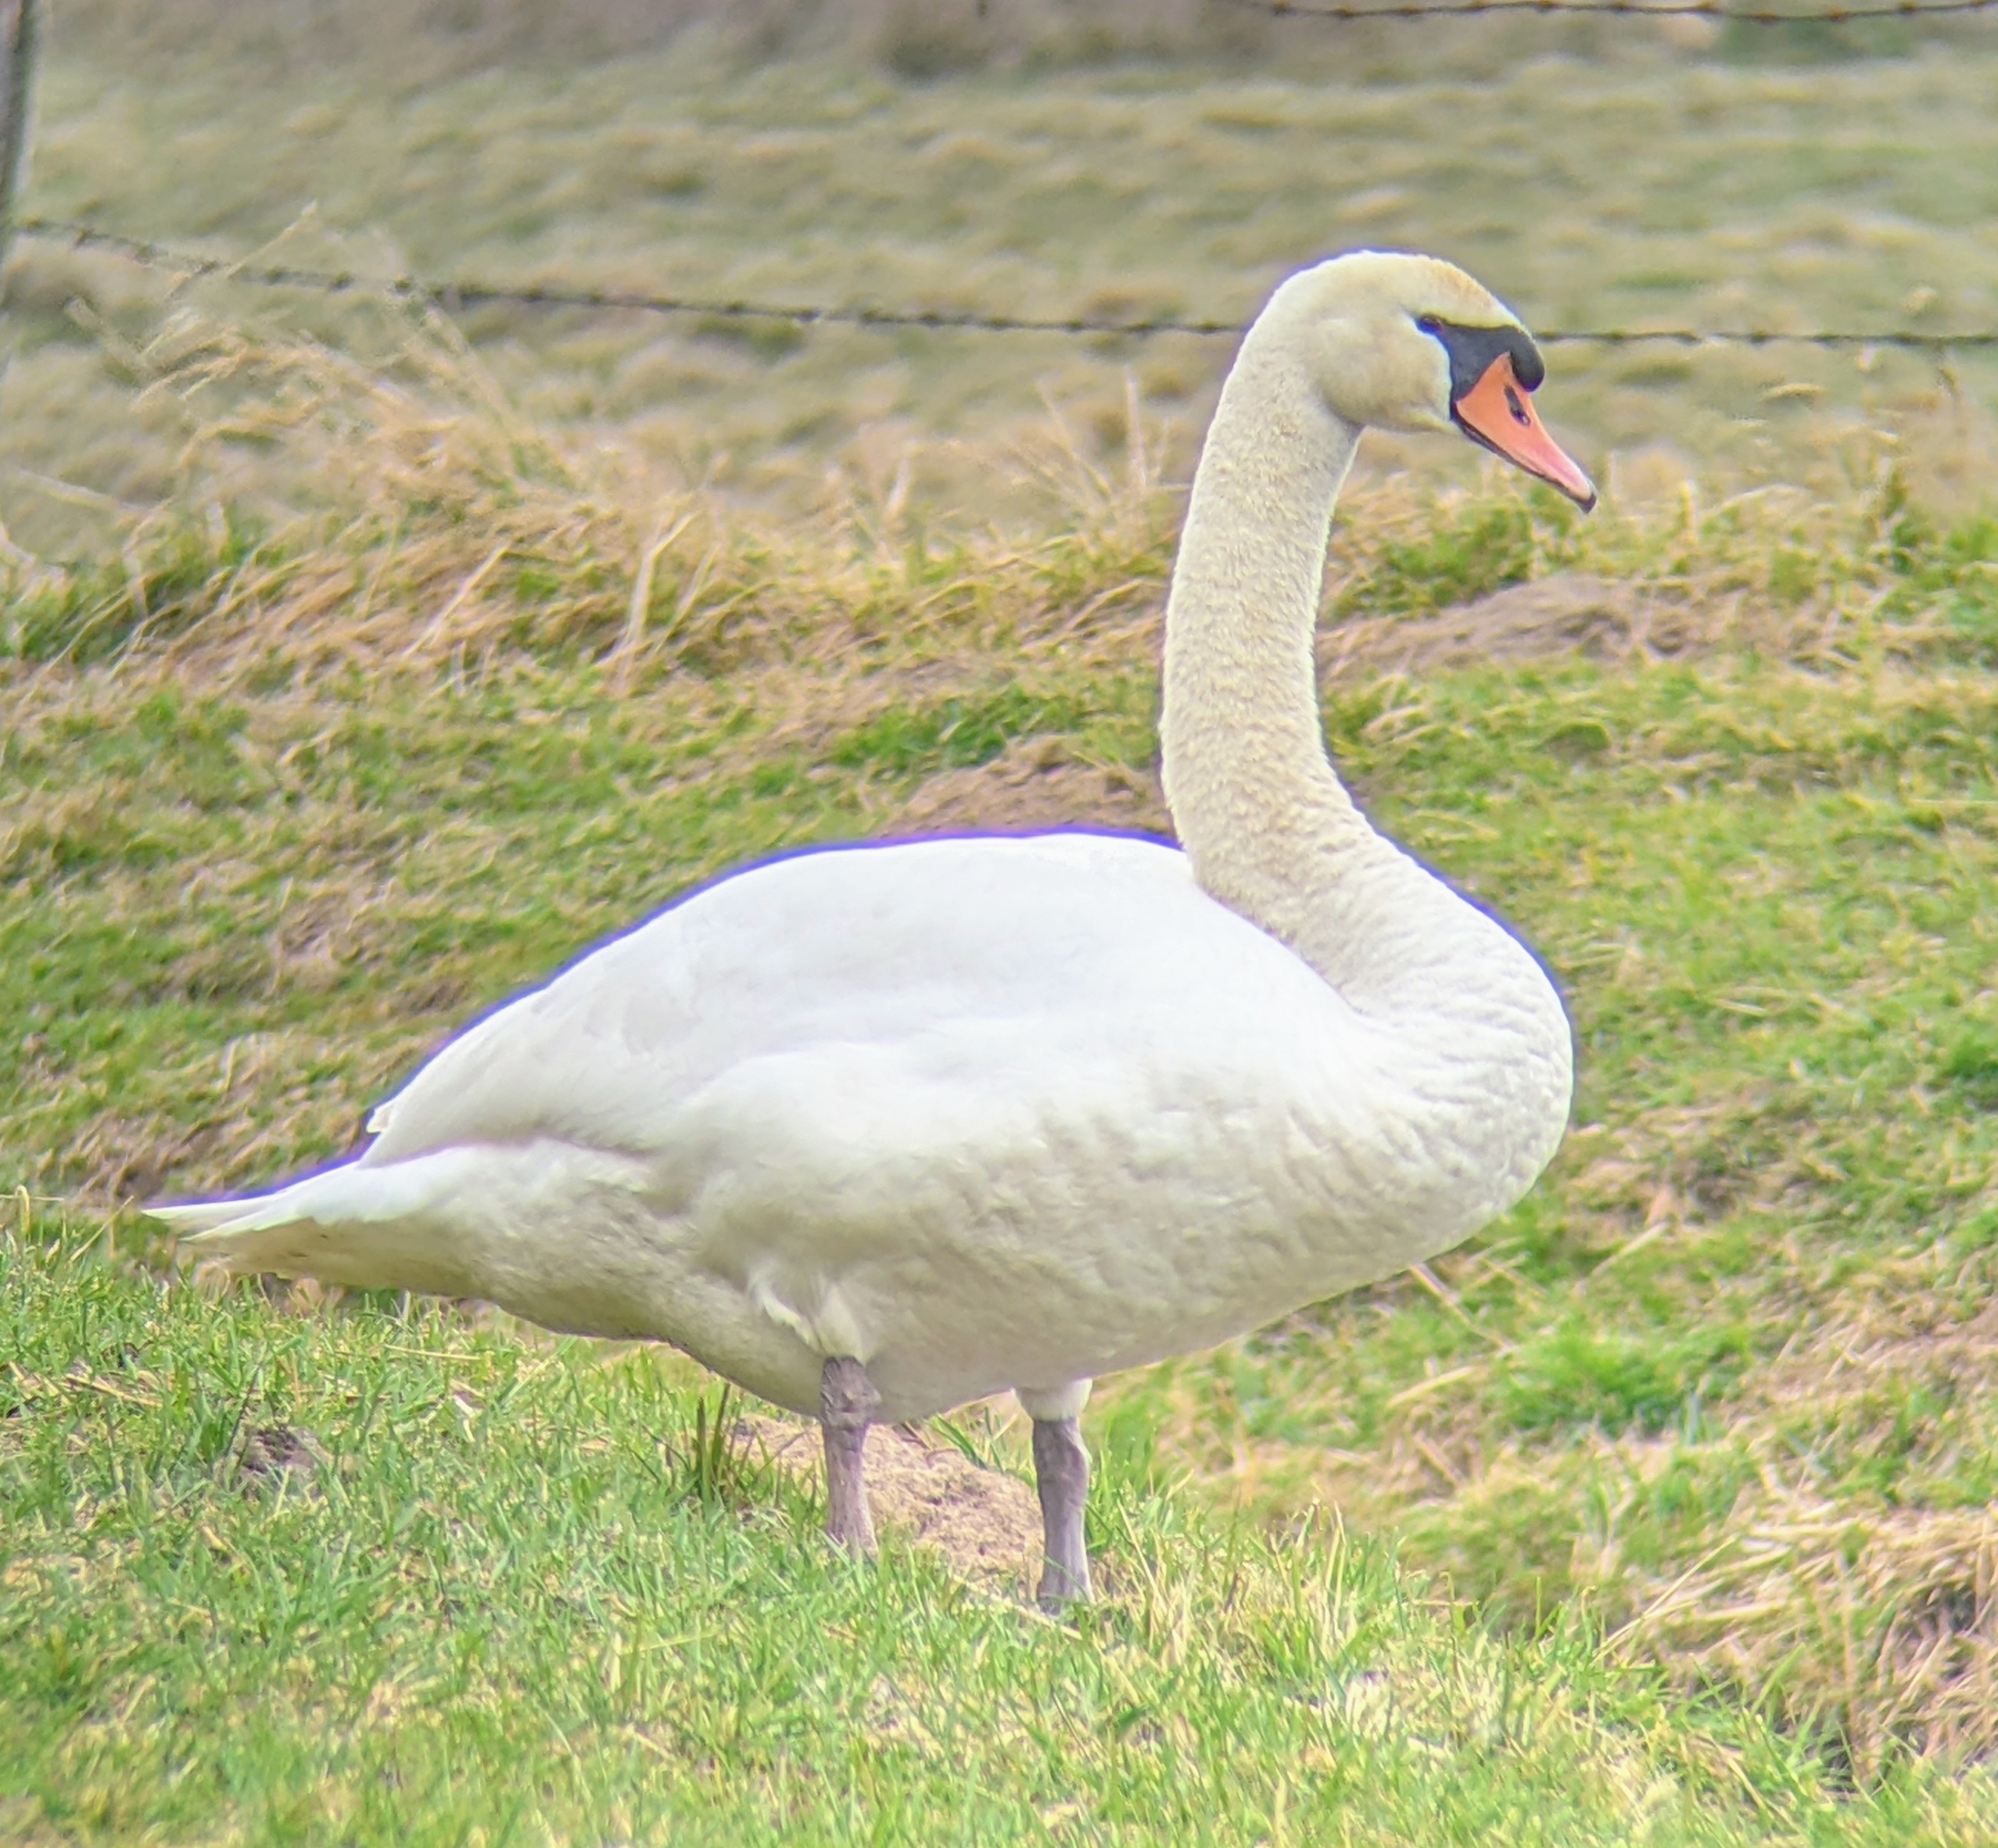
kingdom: Animalia
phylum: Chordata
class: Aves
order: Anseriformes
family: Anatidae
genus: Cygnus
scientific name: Cygnus olor
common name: Mute swan
